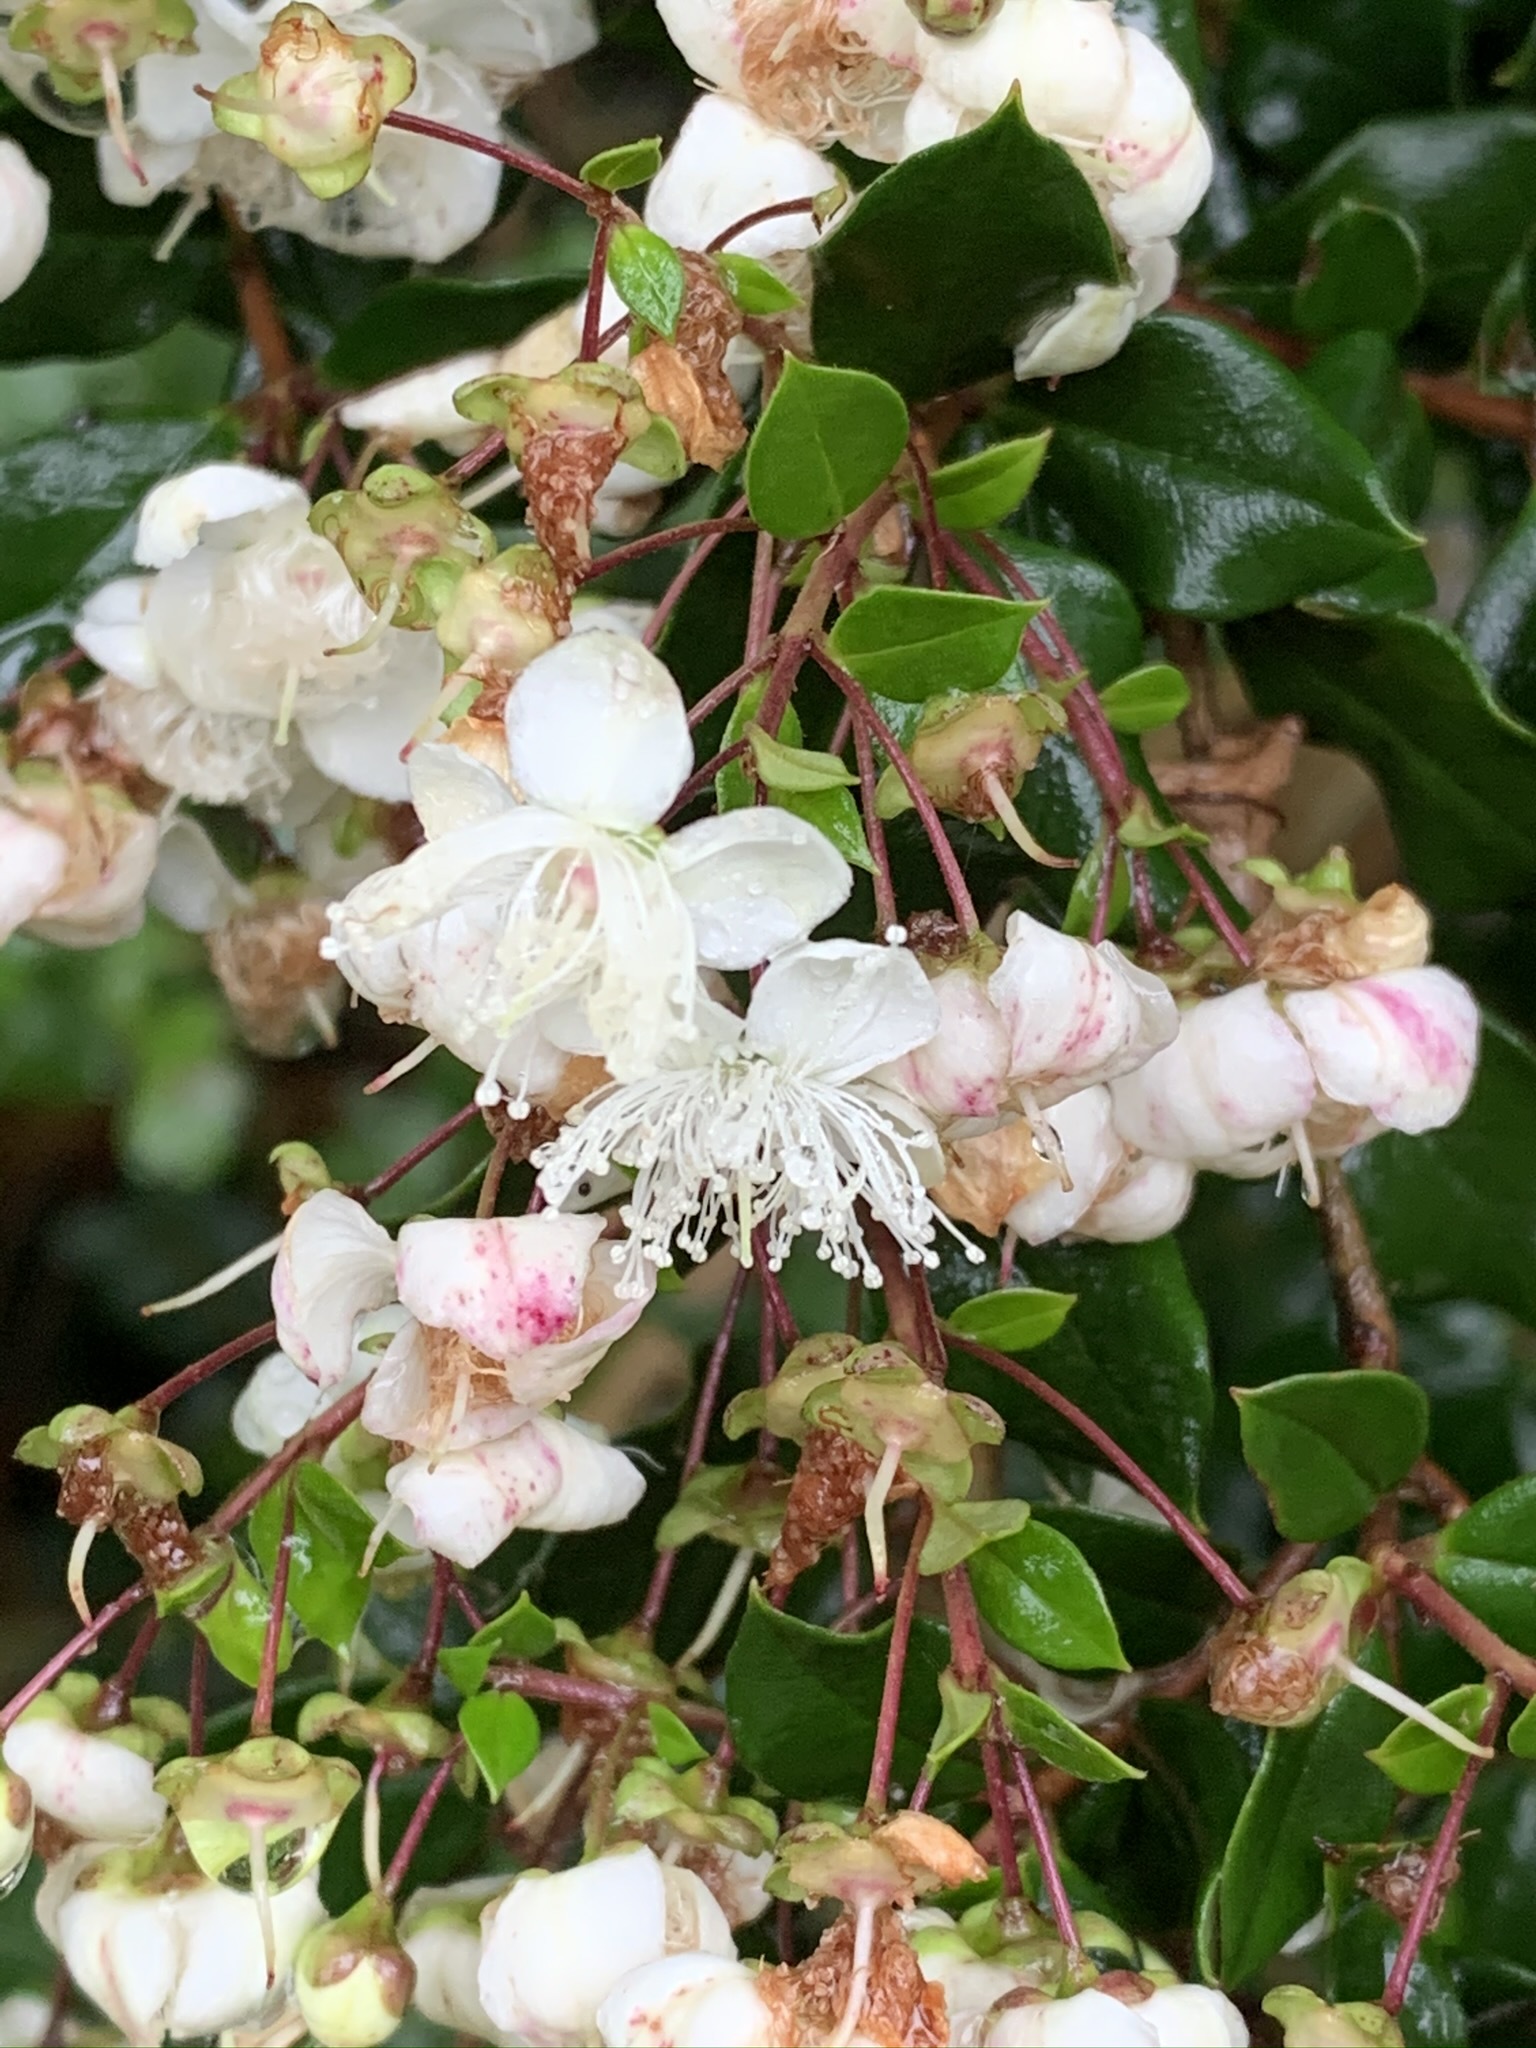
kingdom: Plantae
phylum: Tracheophyta
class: Magnoliopsida
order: Myrtales
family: Myrtaceae
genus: Luma
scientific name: Luma apiculata
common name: Chilean myrtle
